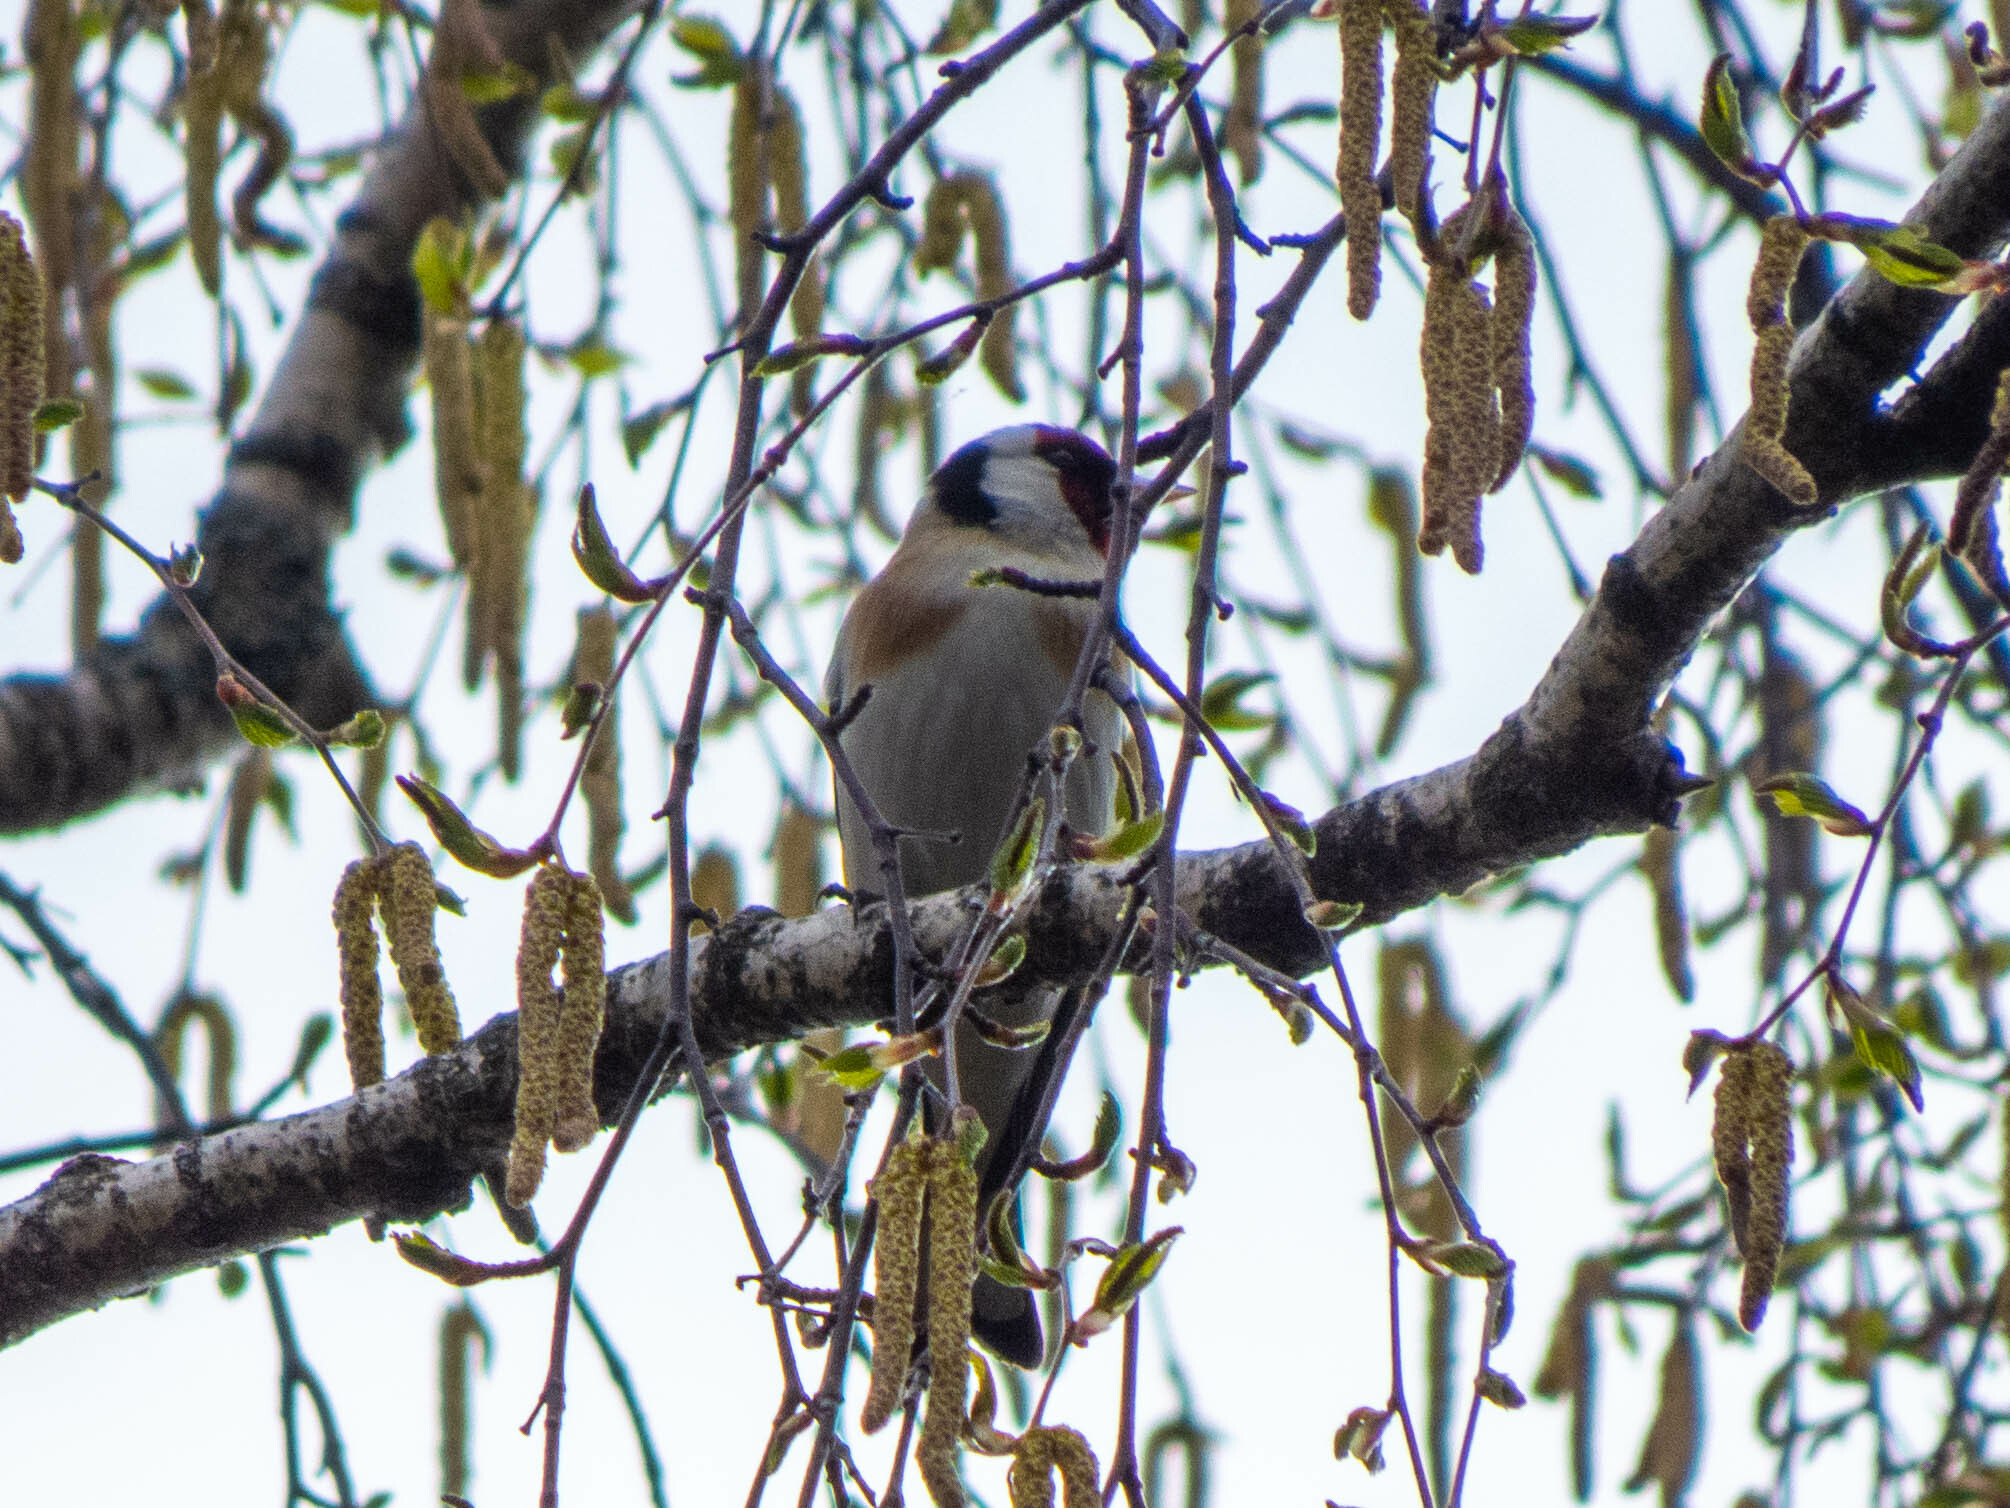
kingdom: Animalia
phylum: Chordata
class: Aves
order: Passeriformes
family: Fringillidae
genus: Carduelis
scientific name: Carduelis carduelis
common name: European goldfinch
